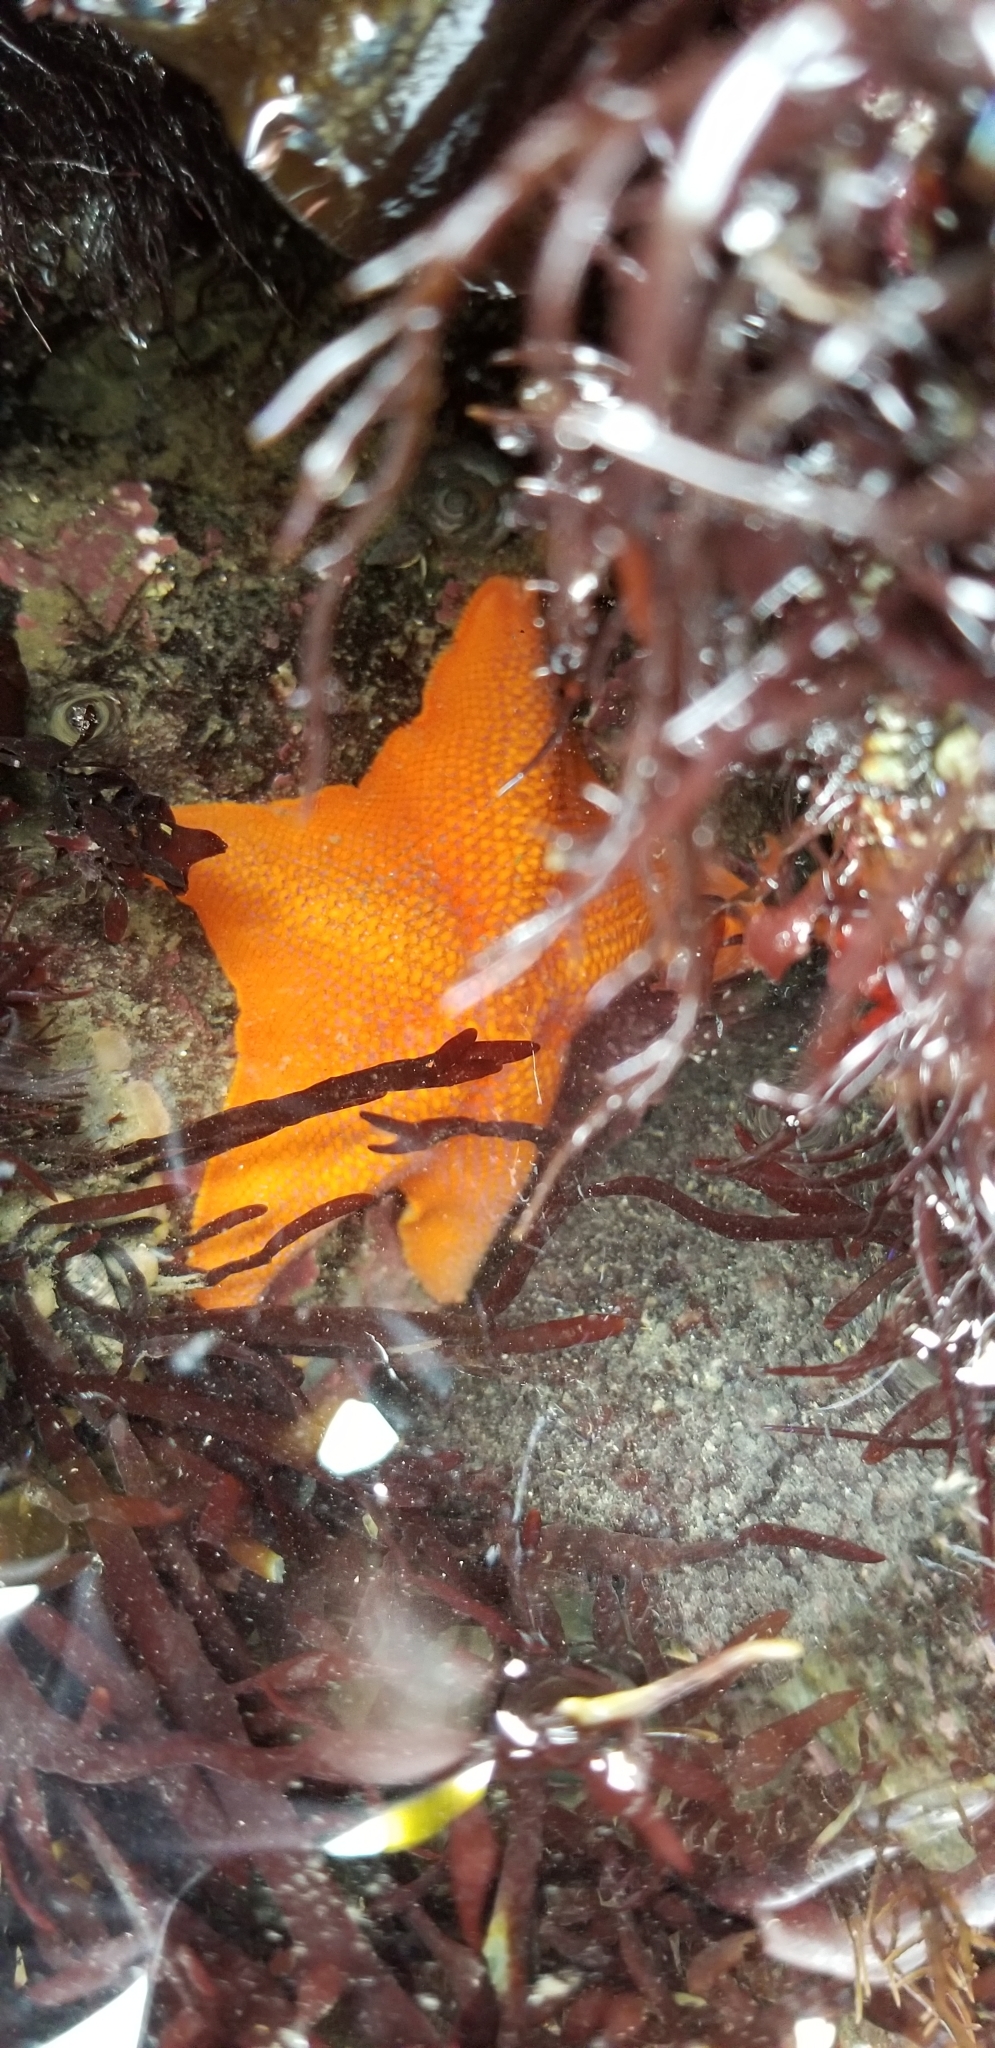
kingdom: Animalia
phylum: Echinodermata
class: Asteroidea
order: Valvatida
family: Asterinidae
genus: Patiria
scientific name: Patiria miniata
